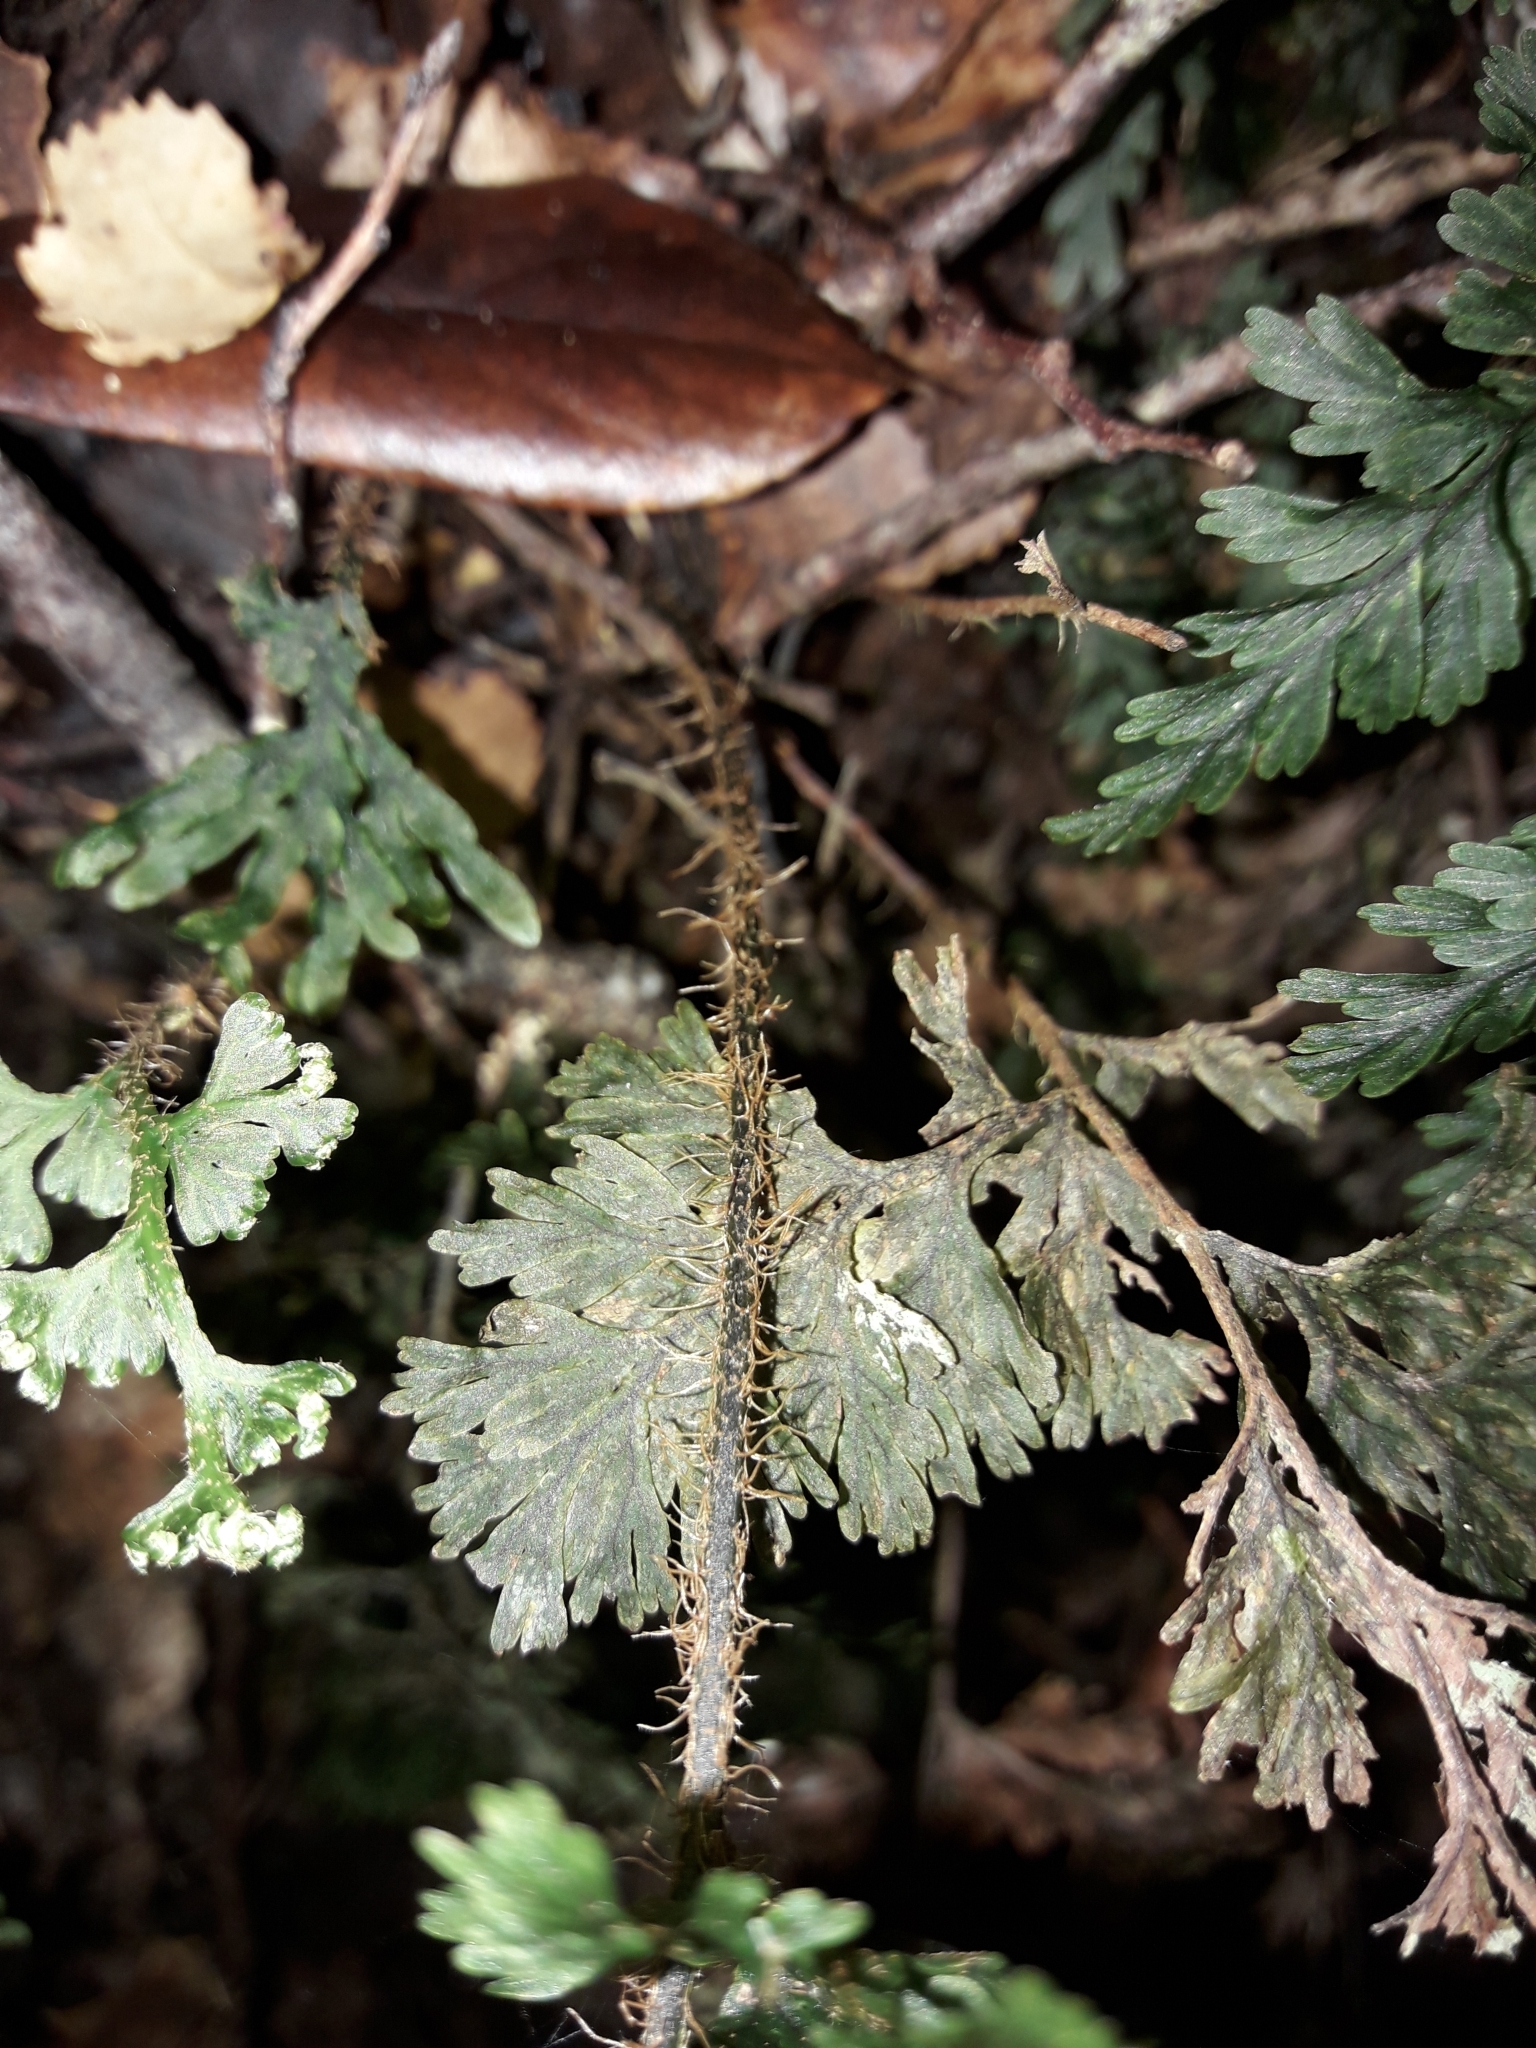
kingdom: Plantae
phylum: Tracheophyta
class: Polypodiopsida
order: Hymenophyllales
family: Hymenophyllaceae
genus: Hymenophyllum
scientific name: Hymenophyllum scabrum
